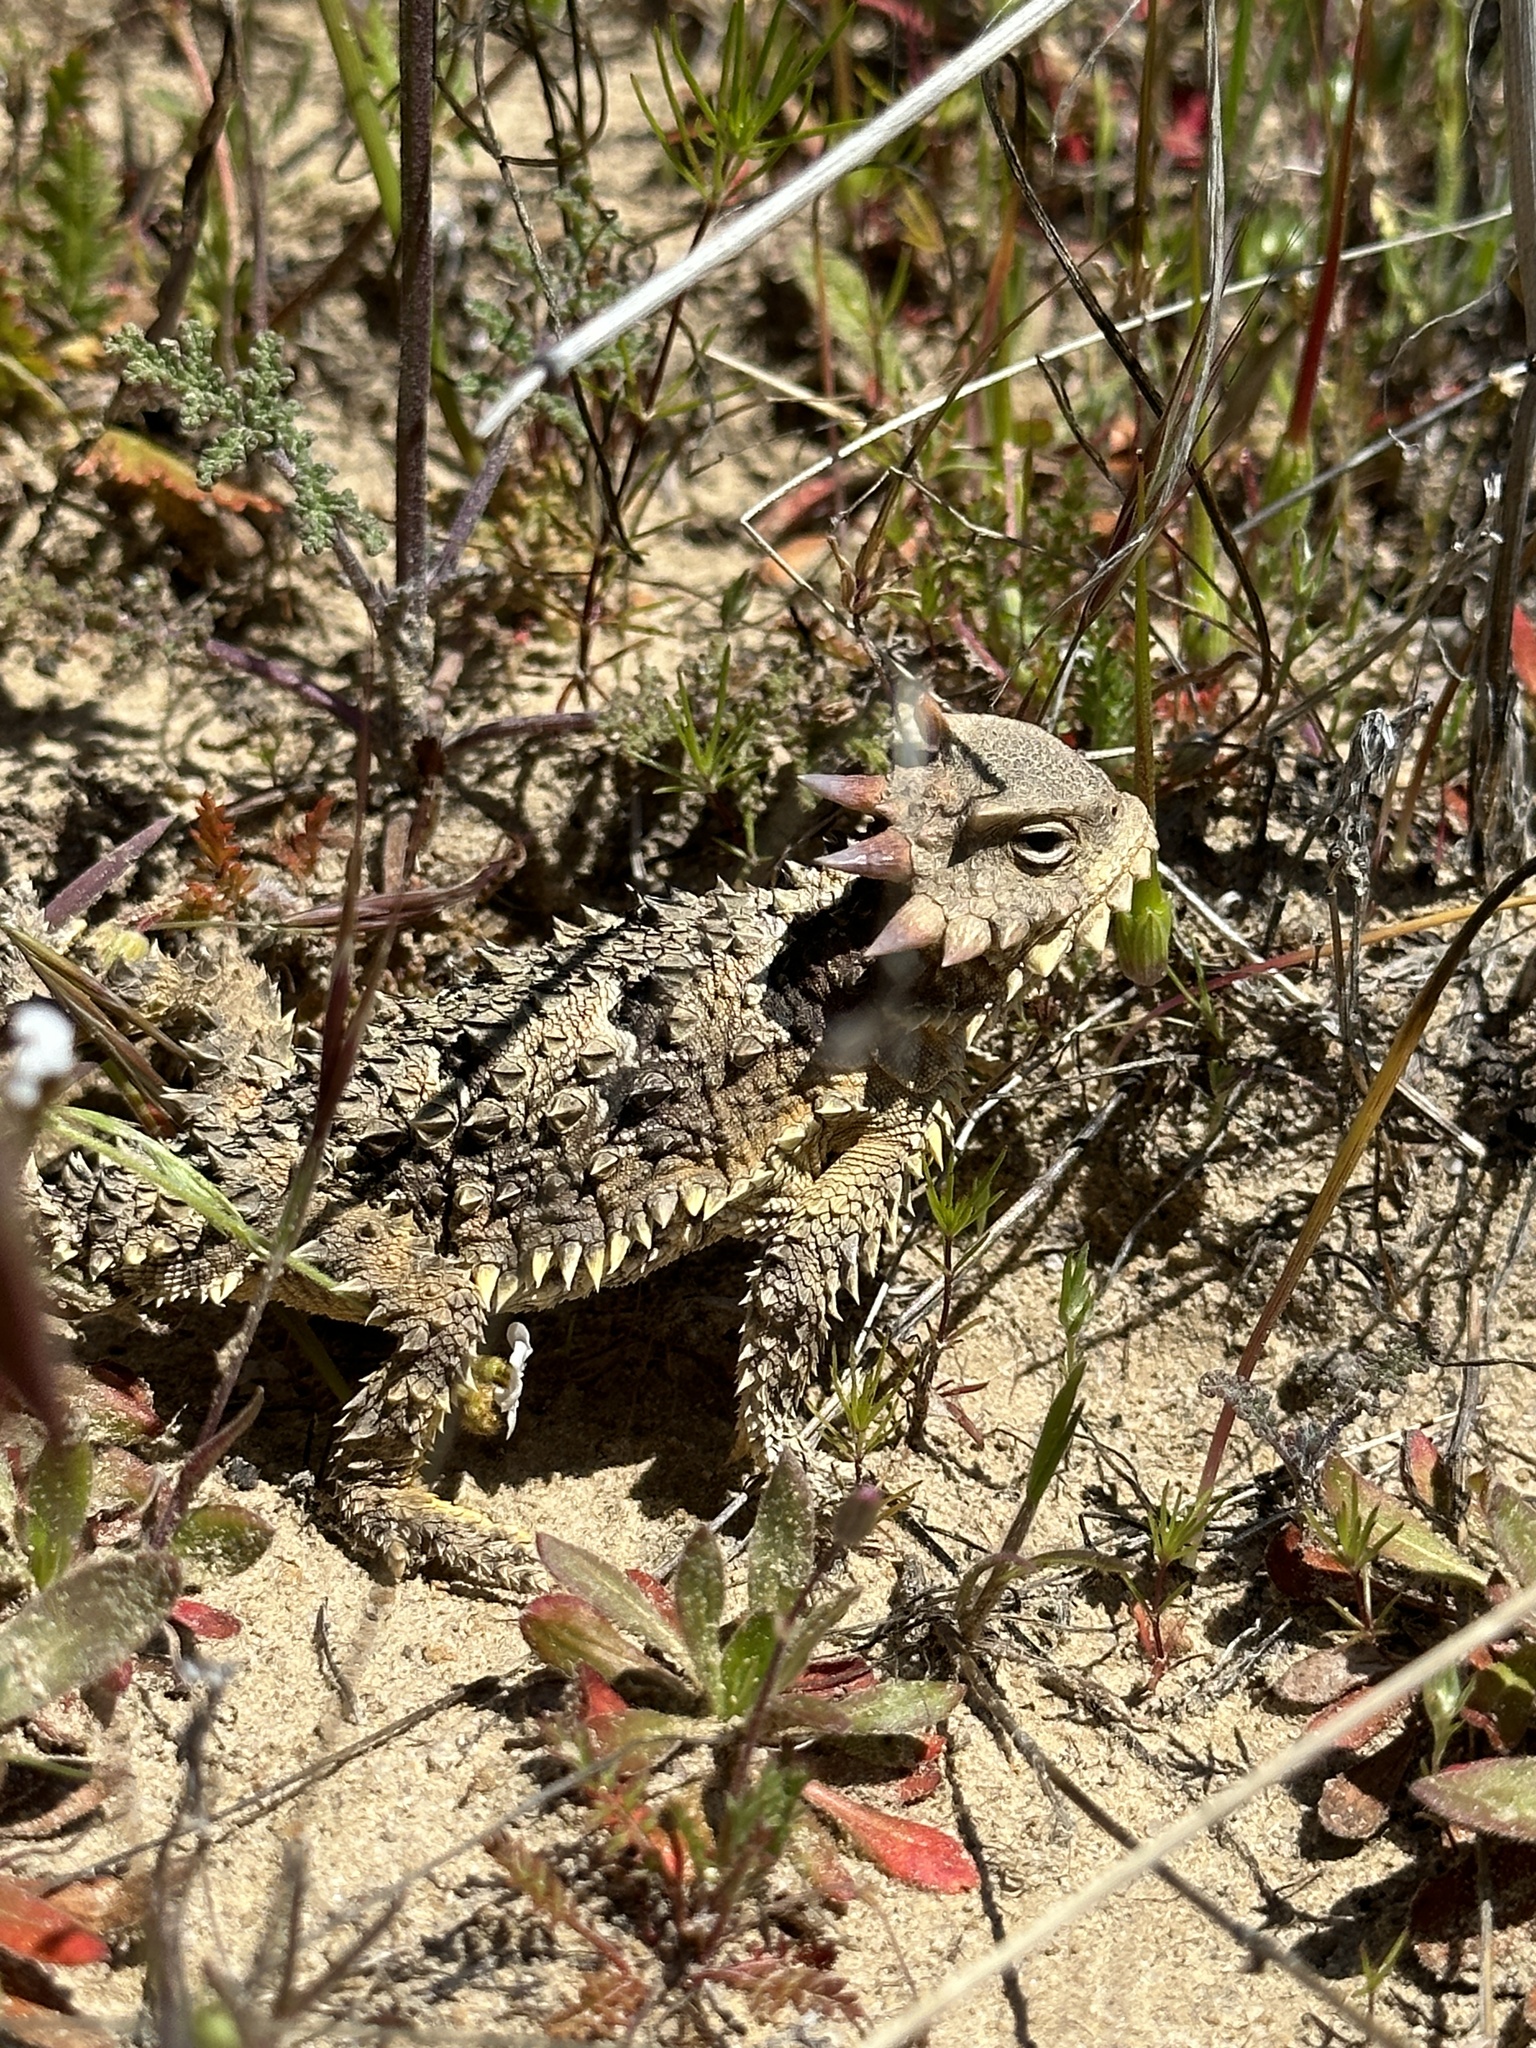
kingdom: Animalia
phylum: Chordata
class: Squamata
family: Phrynosomatidae
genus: Phrynosoma
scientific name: Phrynosoma blainvillii
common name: San diego horned lizard
